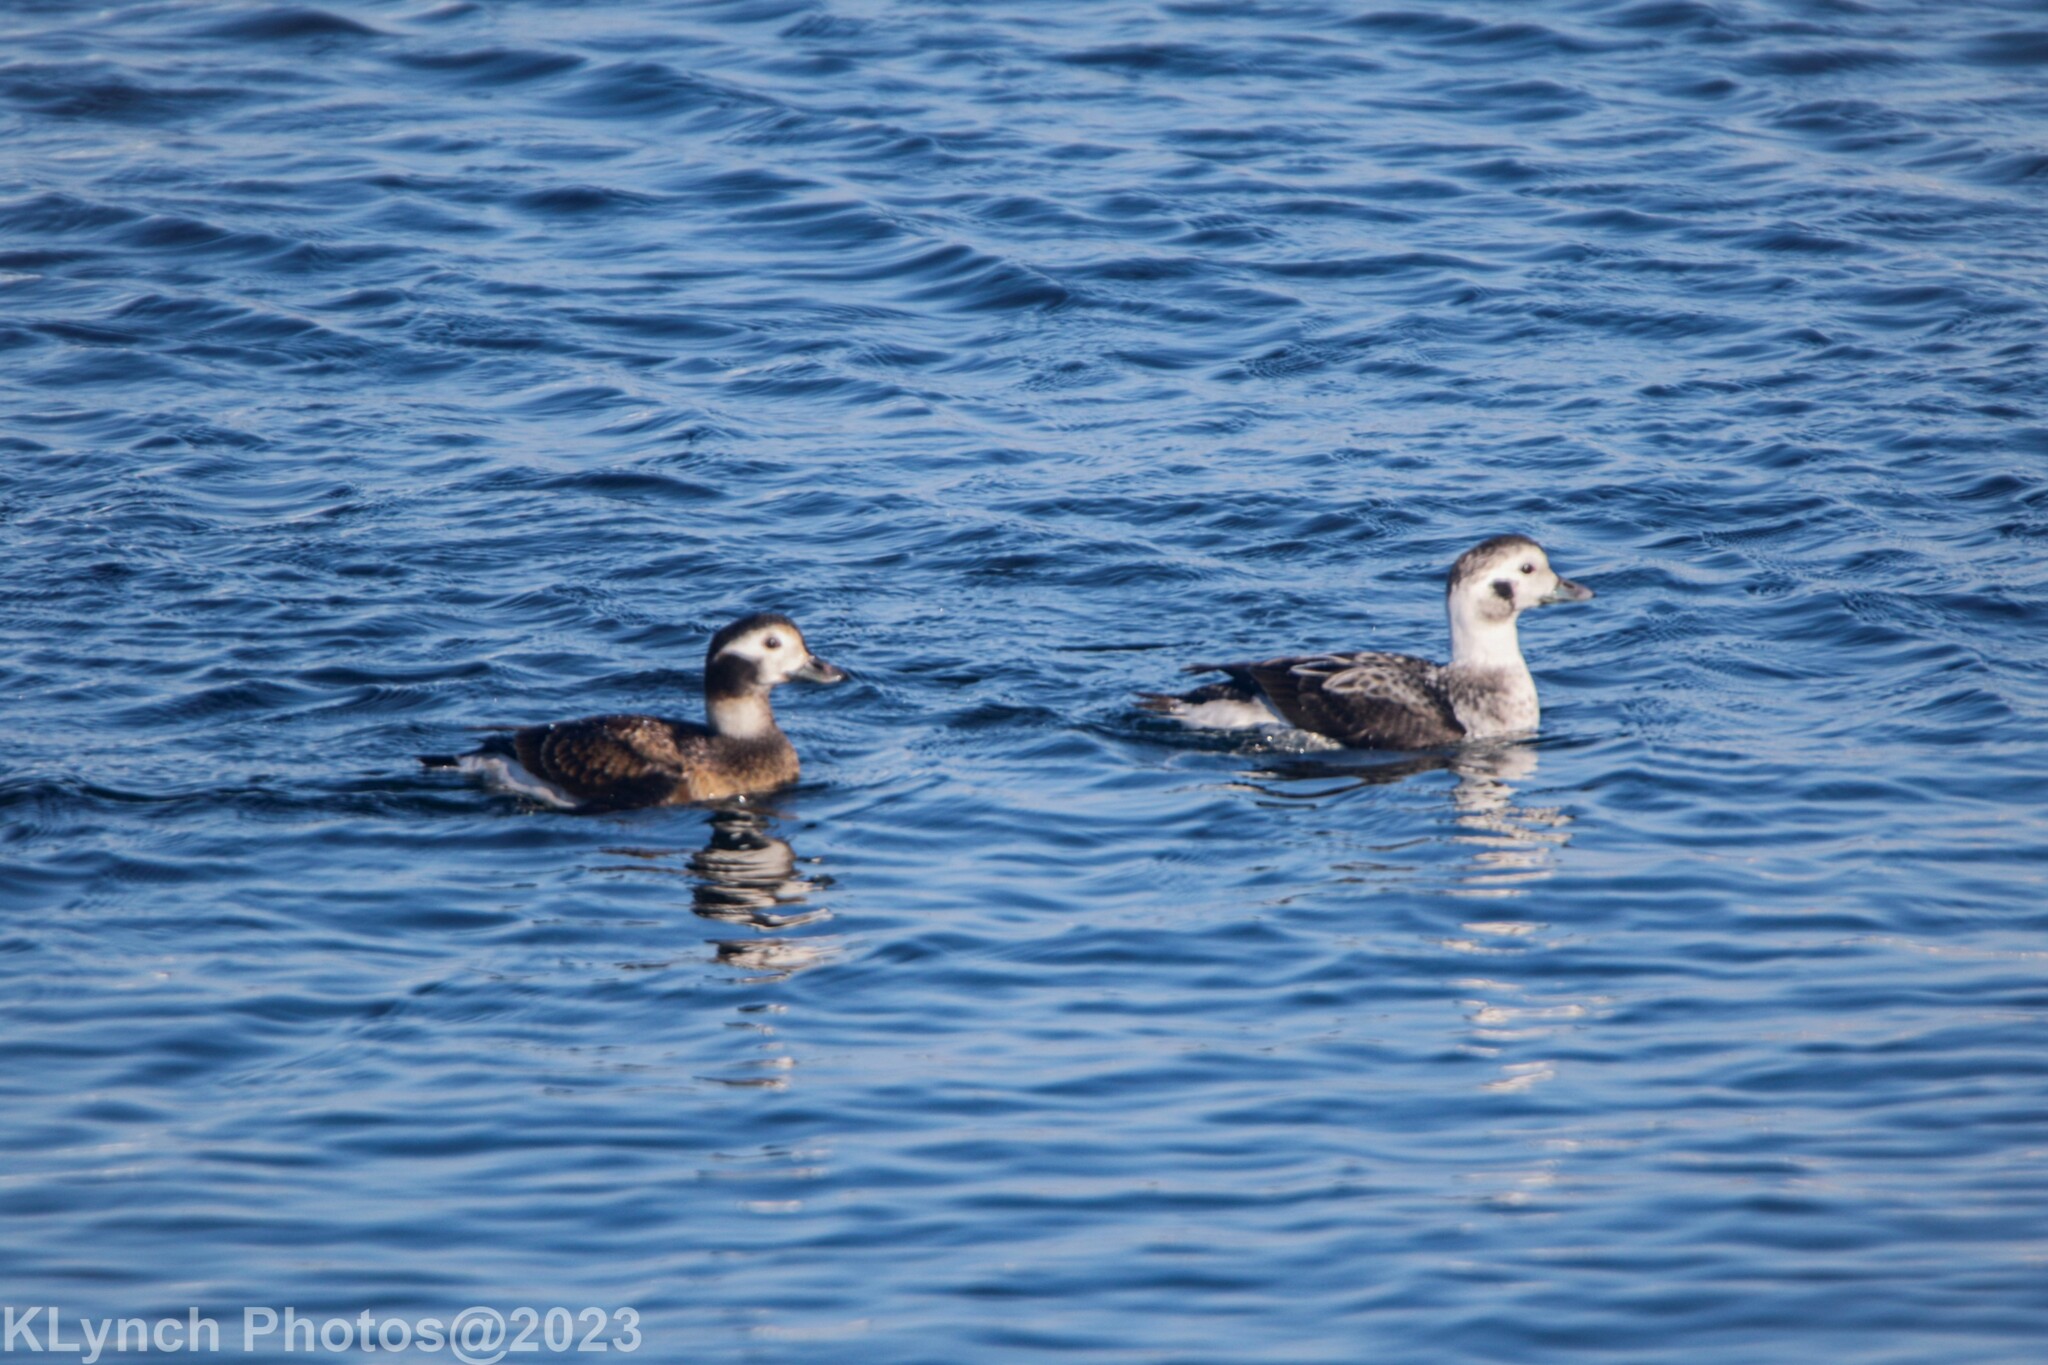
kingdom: Animalia
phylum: Chordata
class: Aves
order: Anseriformes
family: Anatidae
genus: Clangula
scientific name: Clangula hyemalis
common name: Long-tailed duck
